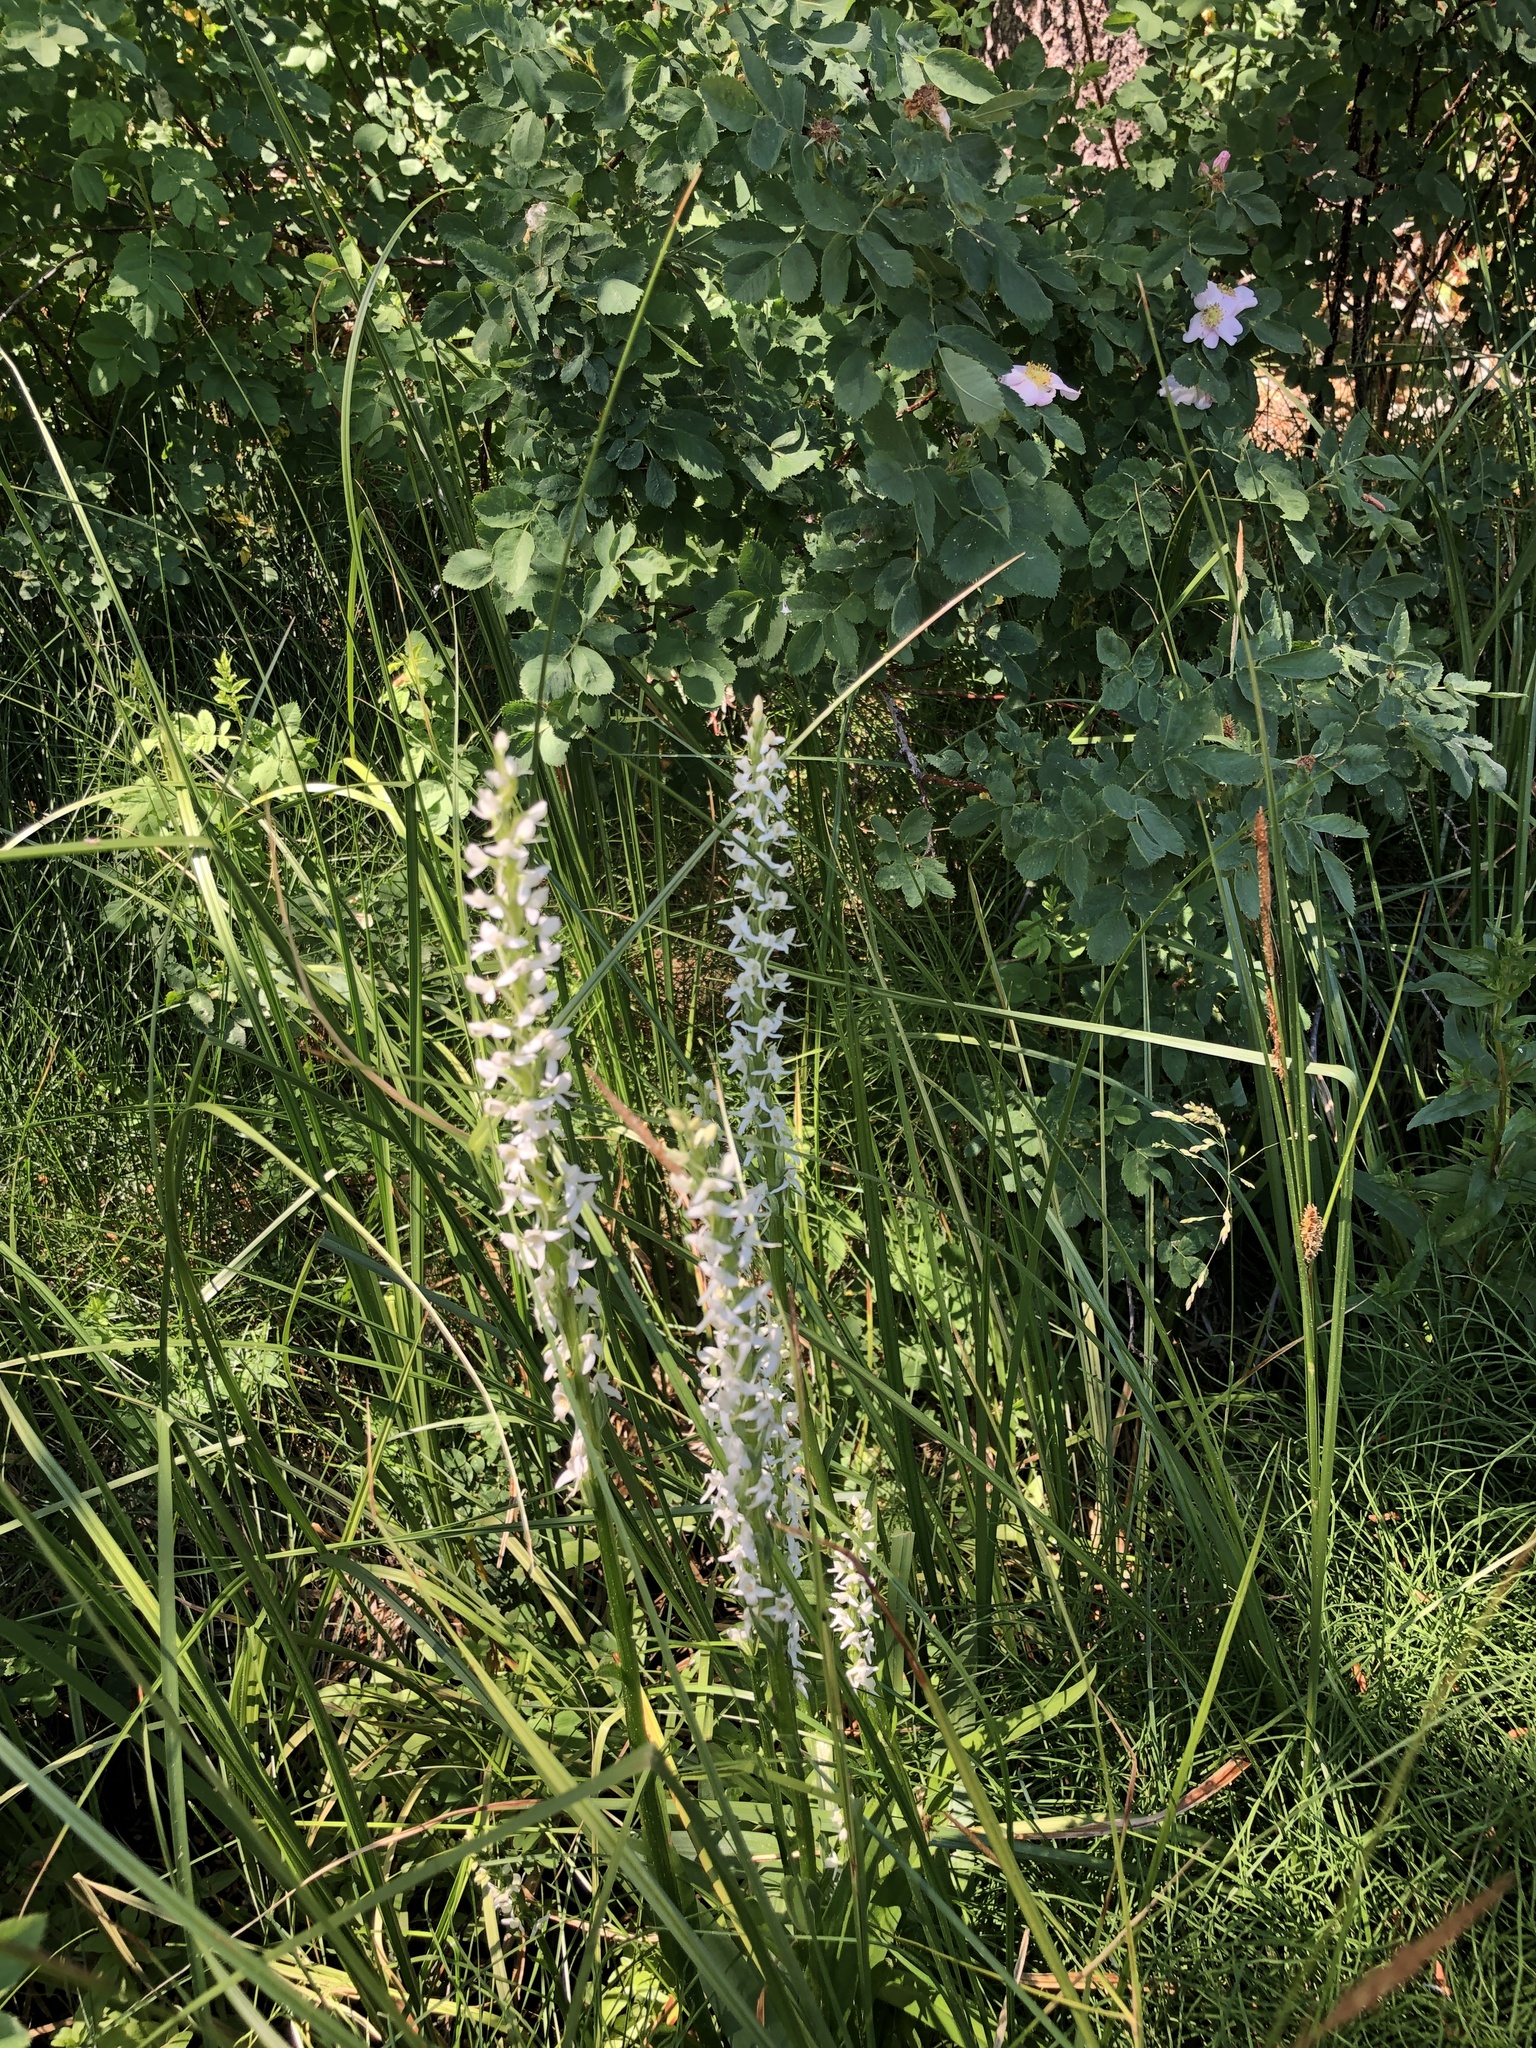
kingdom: Plantae
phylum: Tracheophyta
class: Liliopsida
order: Asparagales
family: Orchidaceae
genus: Platanthera
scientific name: Platanthera dilatata
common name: Bog candles
